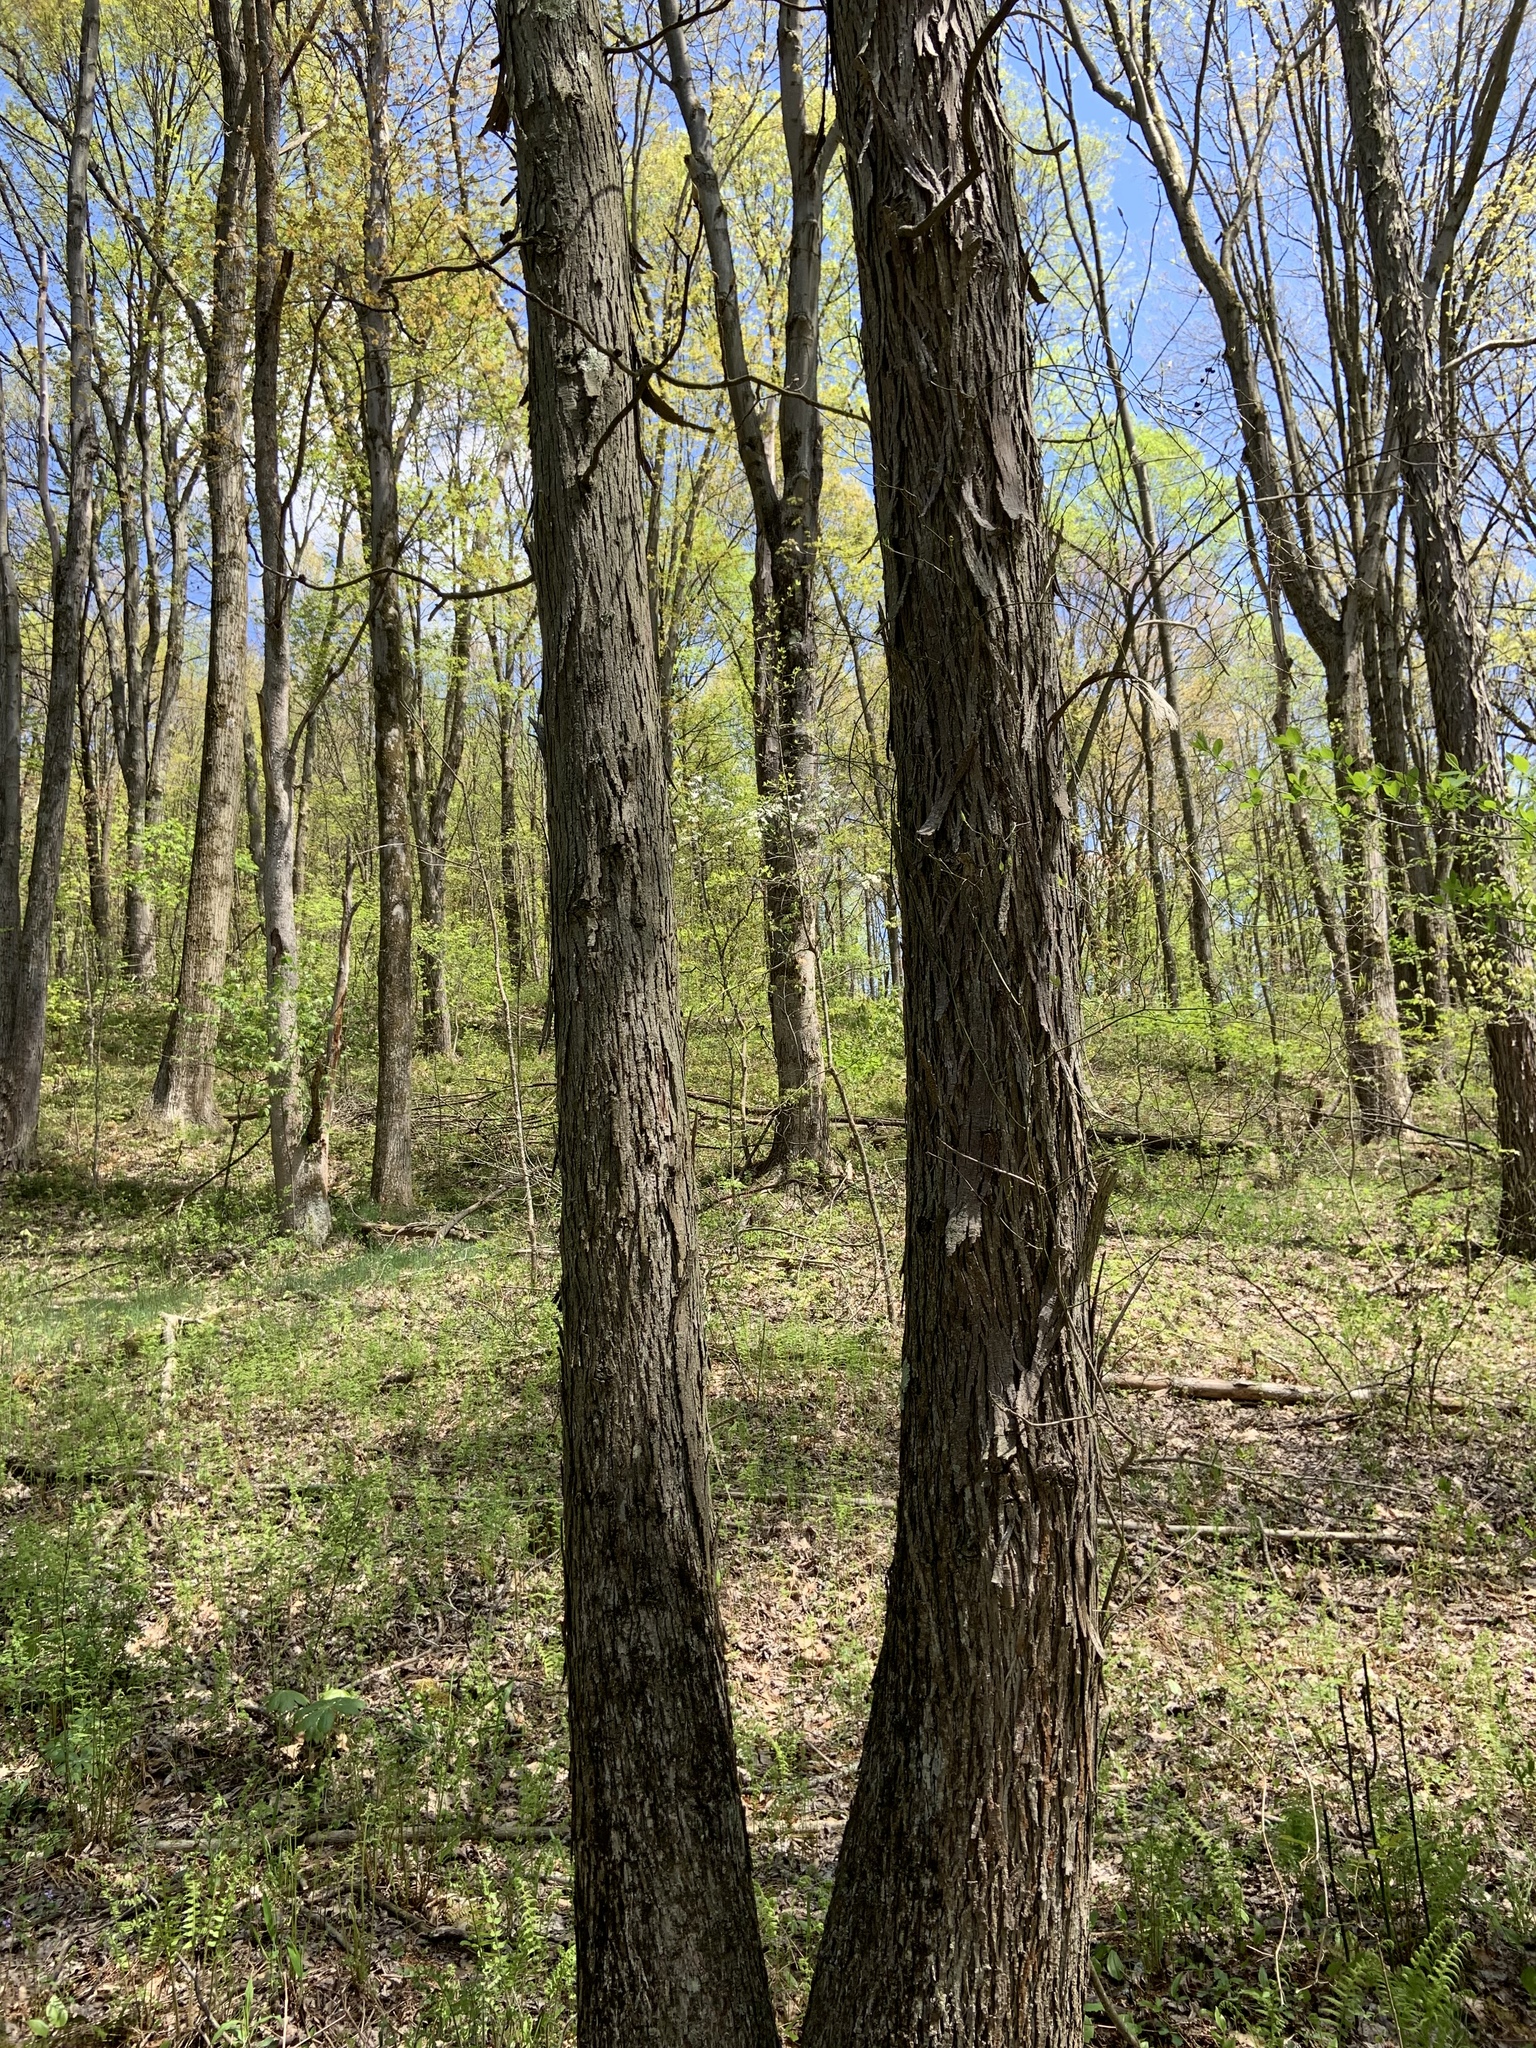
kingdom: Plantae
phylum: Tracheophyta
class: Magnoliopsida
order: Fagales
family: Juglandaceae
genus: Carya
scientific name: Carya ovata
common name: Shagbark hickory
